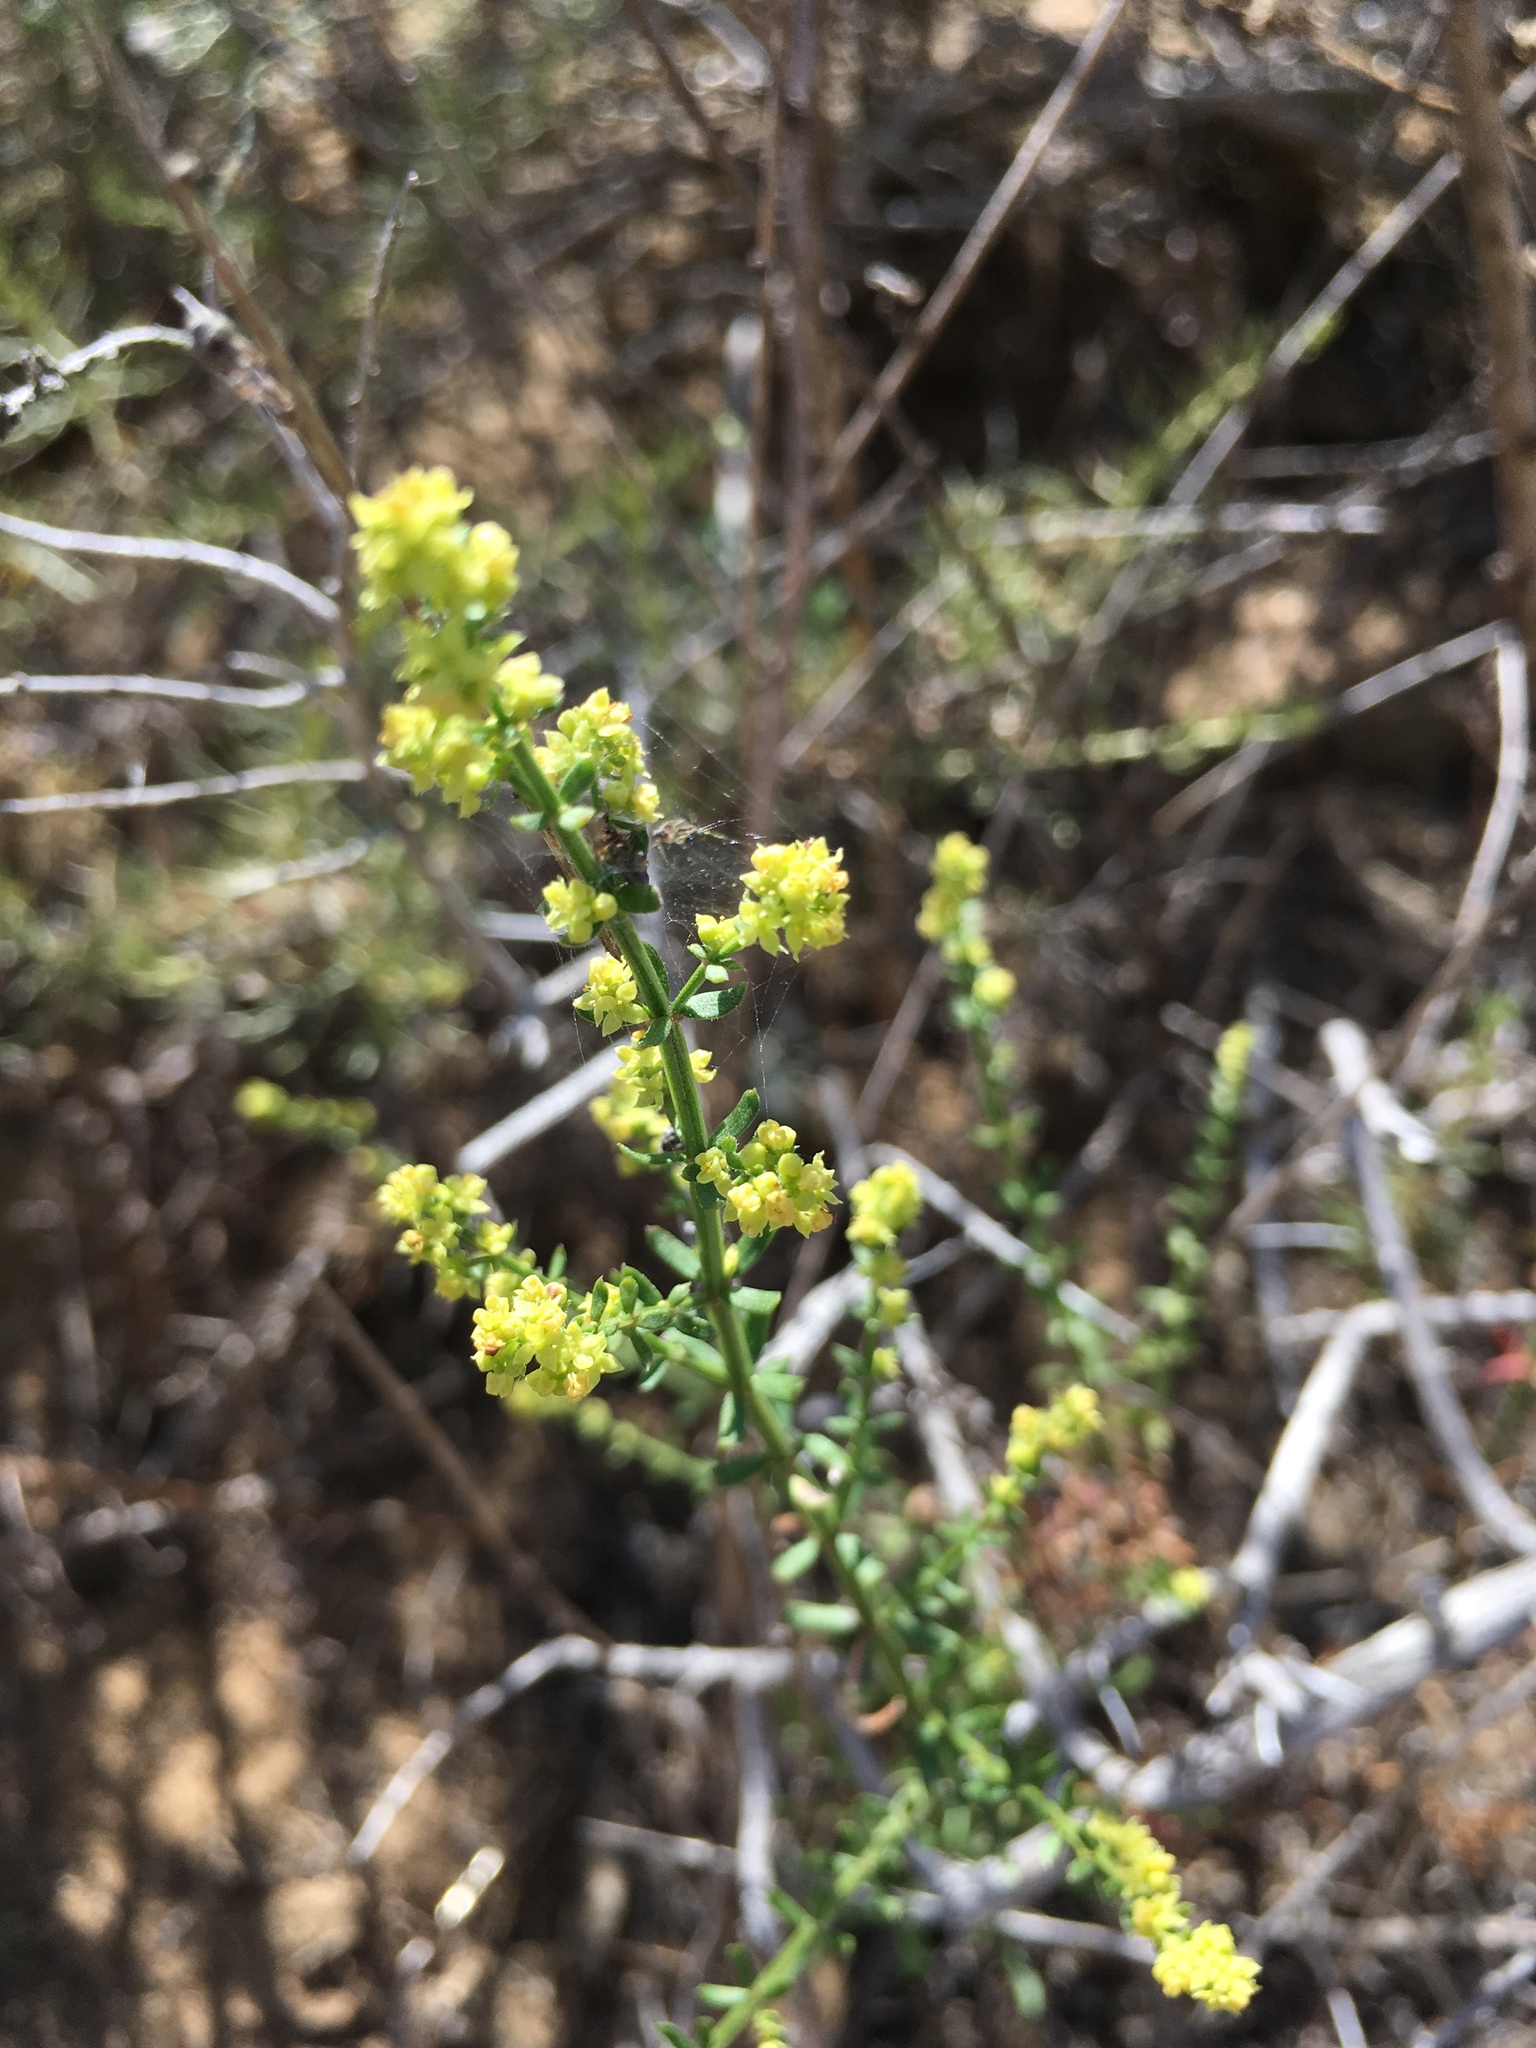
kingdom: Plantae
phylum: Tracheophyta
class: Magnoliopsida
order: Gentianales
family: Rubiaceae
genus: Galium
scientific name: Galium angustifolium
